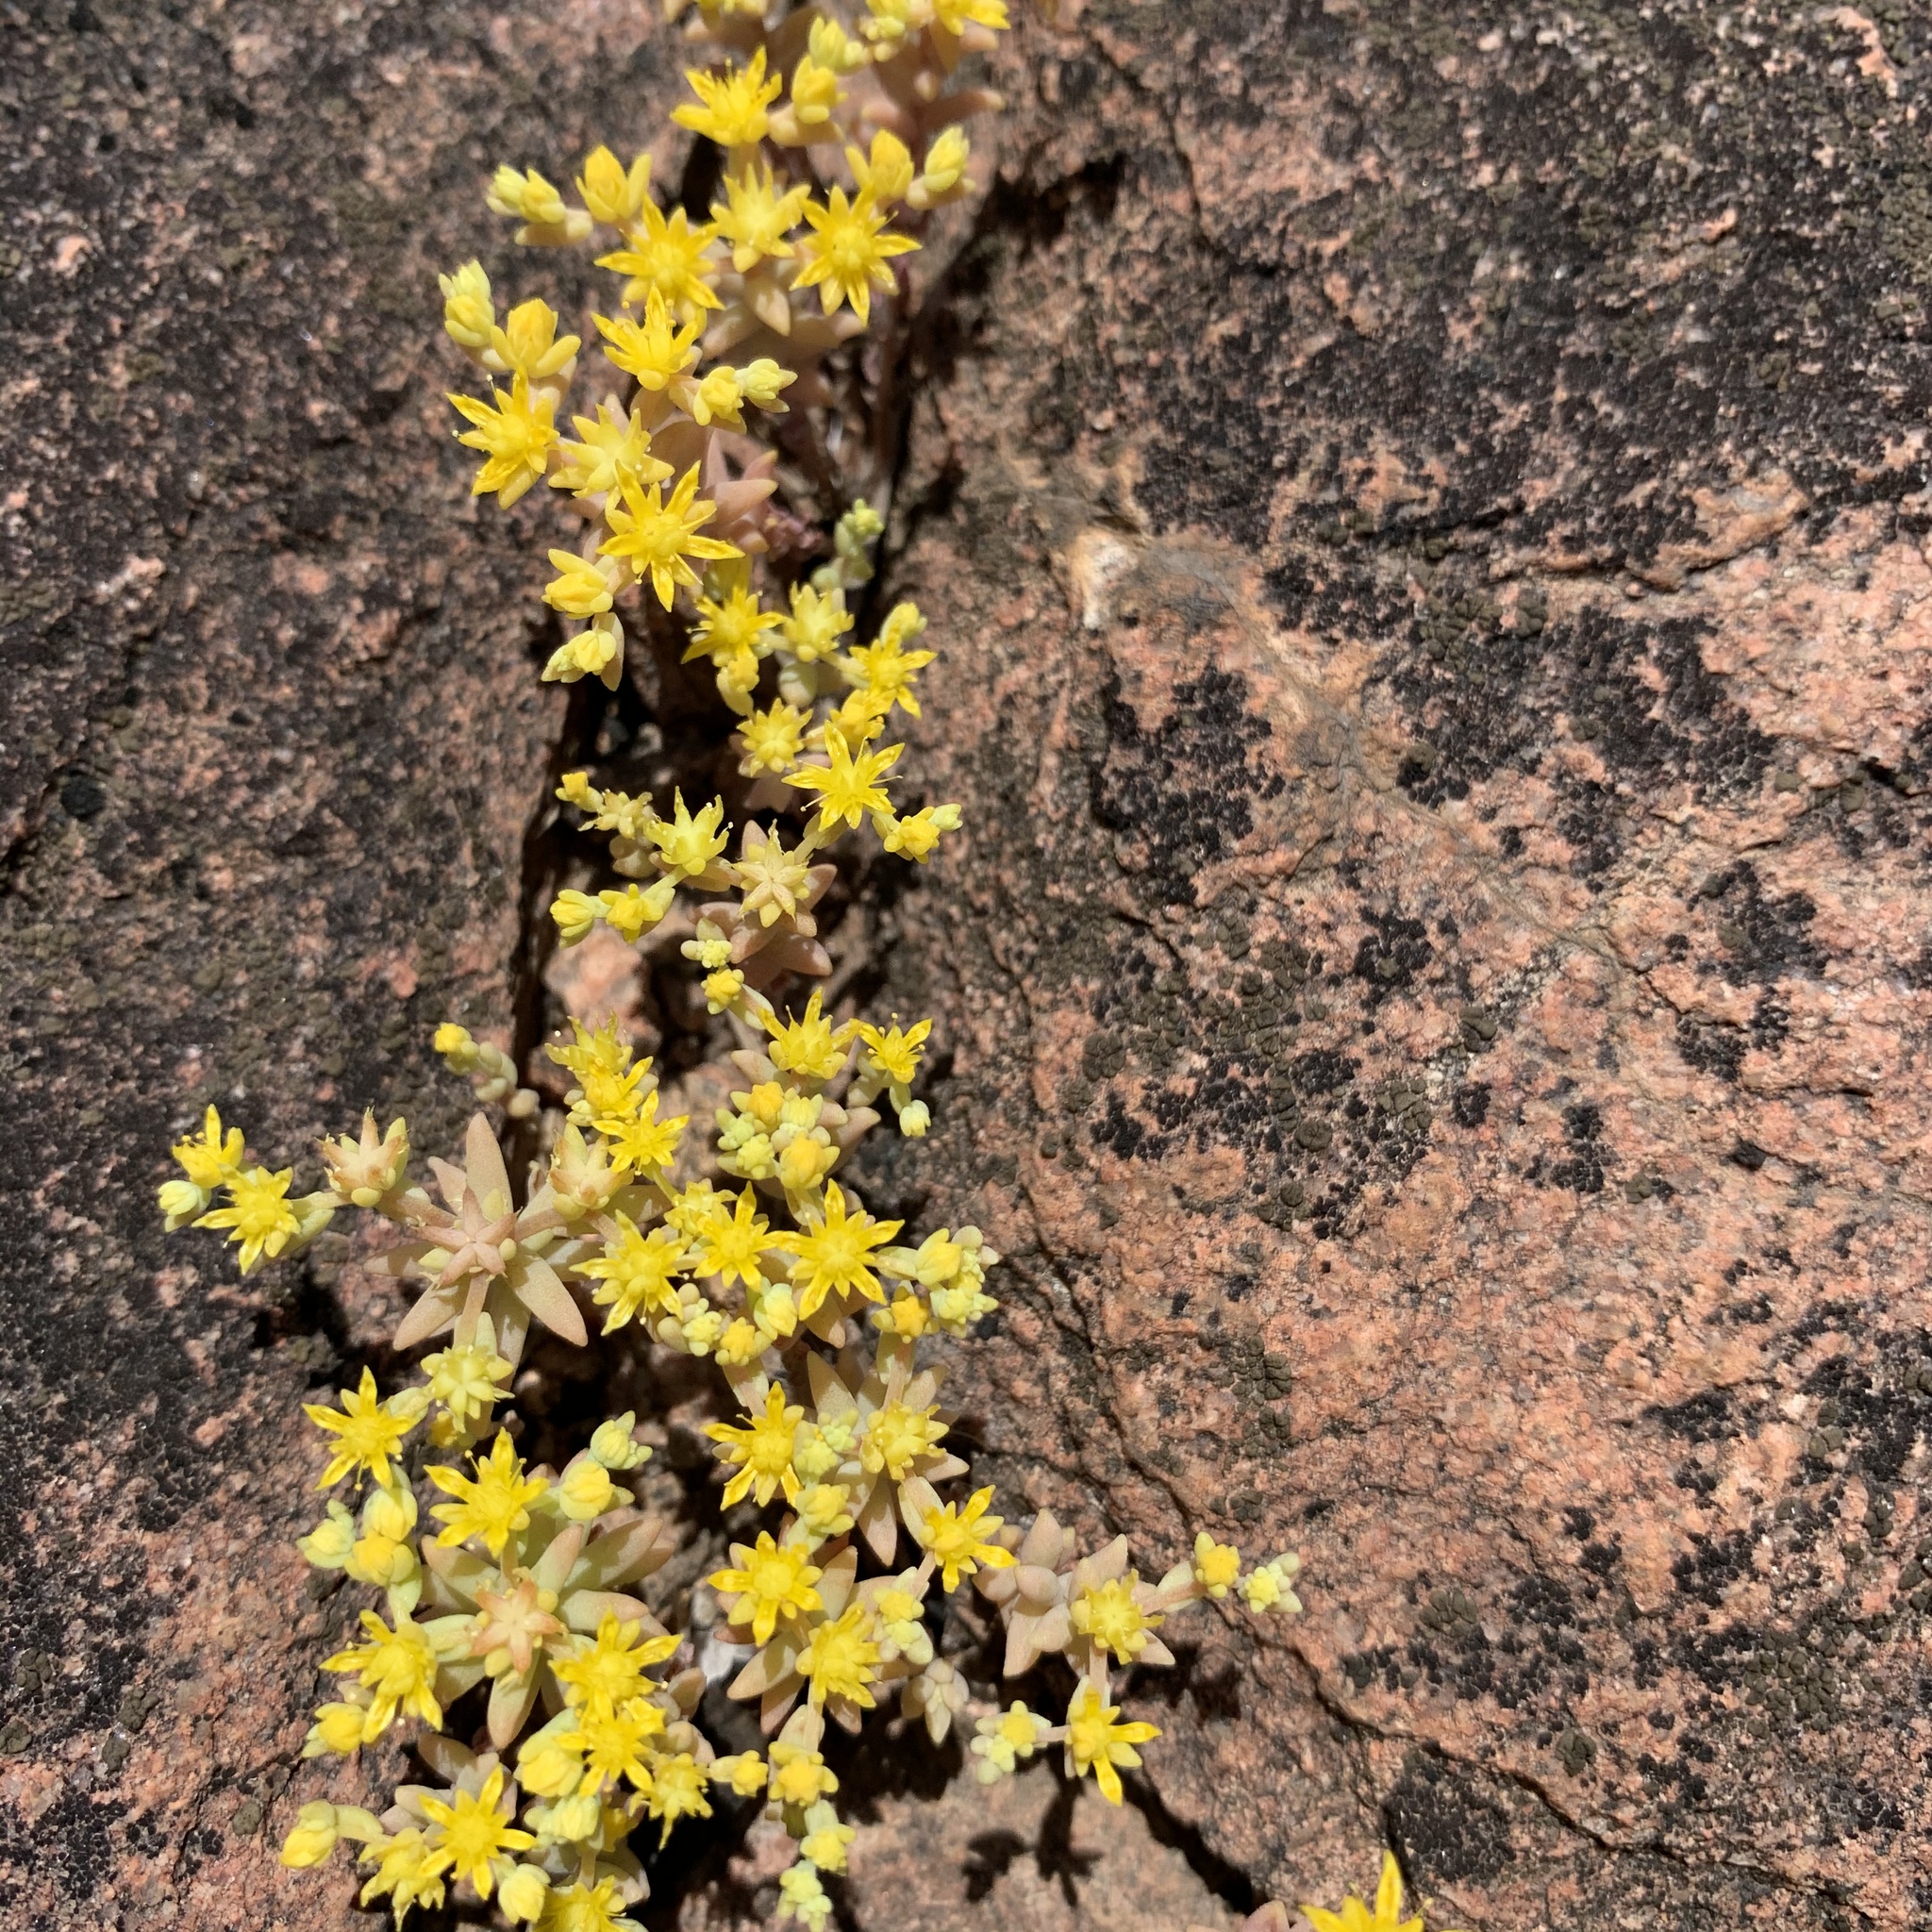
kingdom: Plantae
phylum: Tracheophyta
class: Magnoliopsida
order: Saxifragales
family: Crassulaceae
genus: Sedum
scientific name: Sedum nuttallii
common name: Yellow stonecrop
